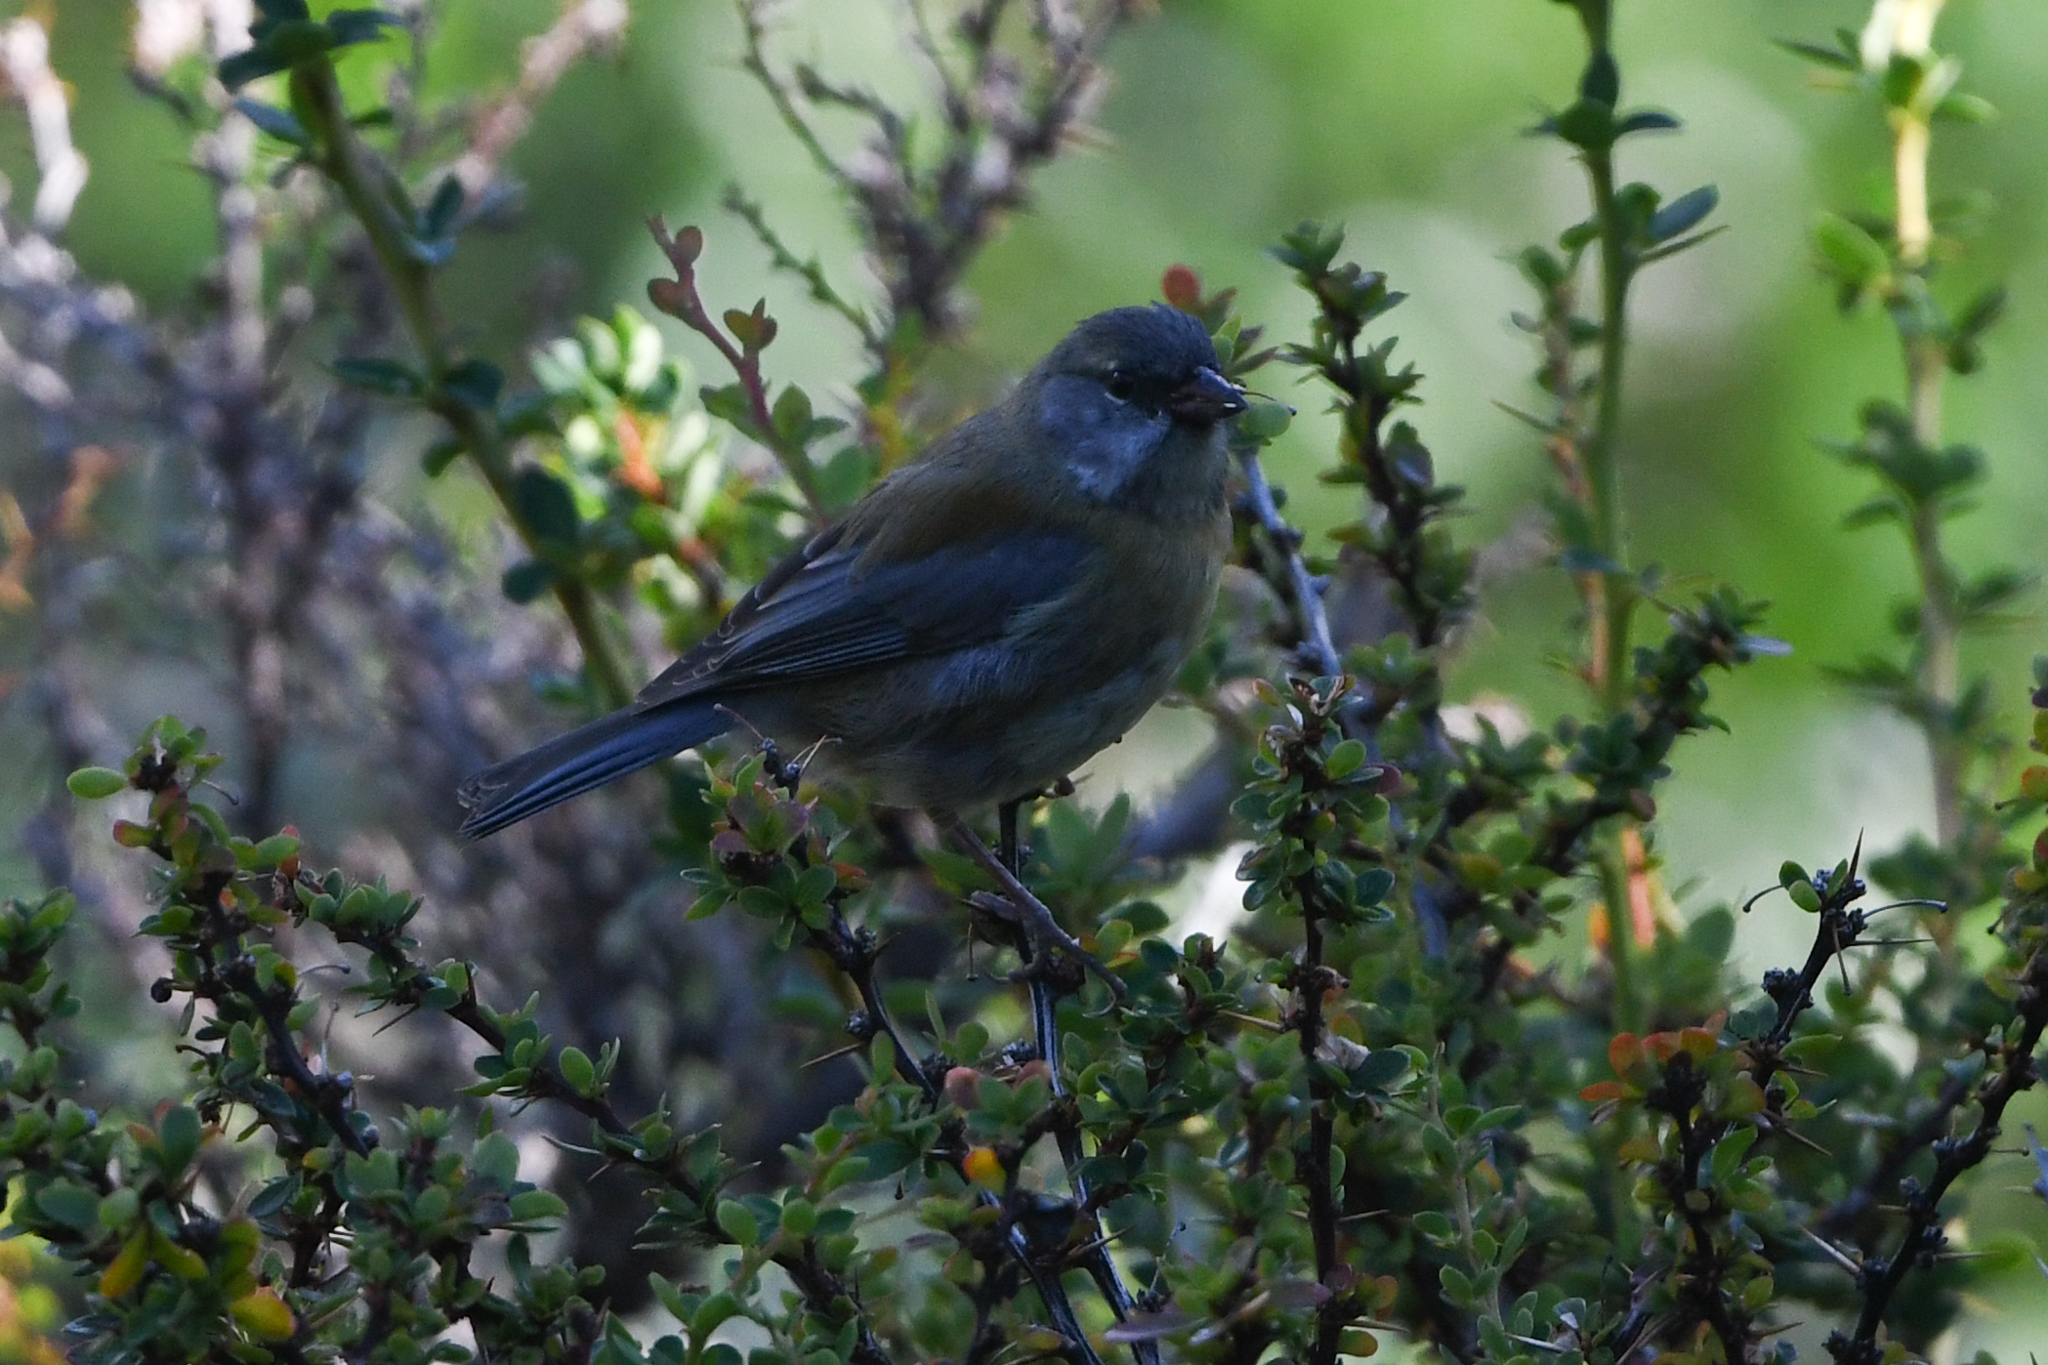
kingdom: Animalia
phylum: Chordata
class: Aves
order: Passeriformes
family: Thraupidae
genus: Phrygilus
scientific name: Phrygilus patagonicus
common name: Patagonian sierra finch
